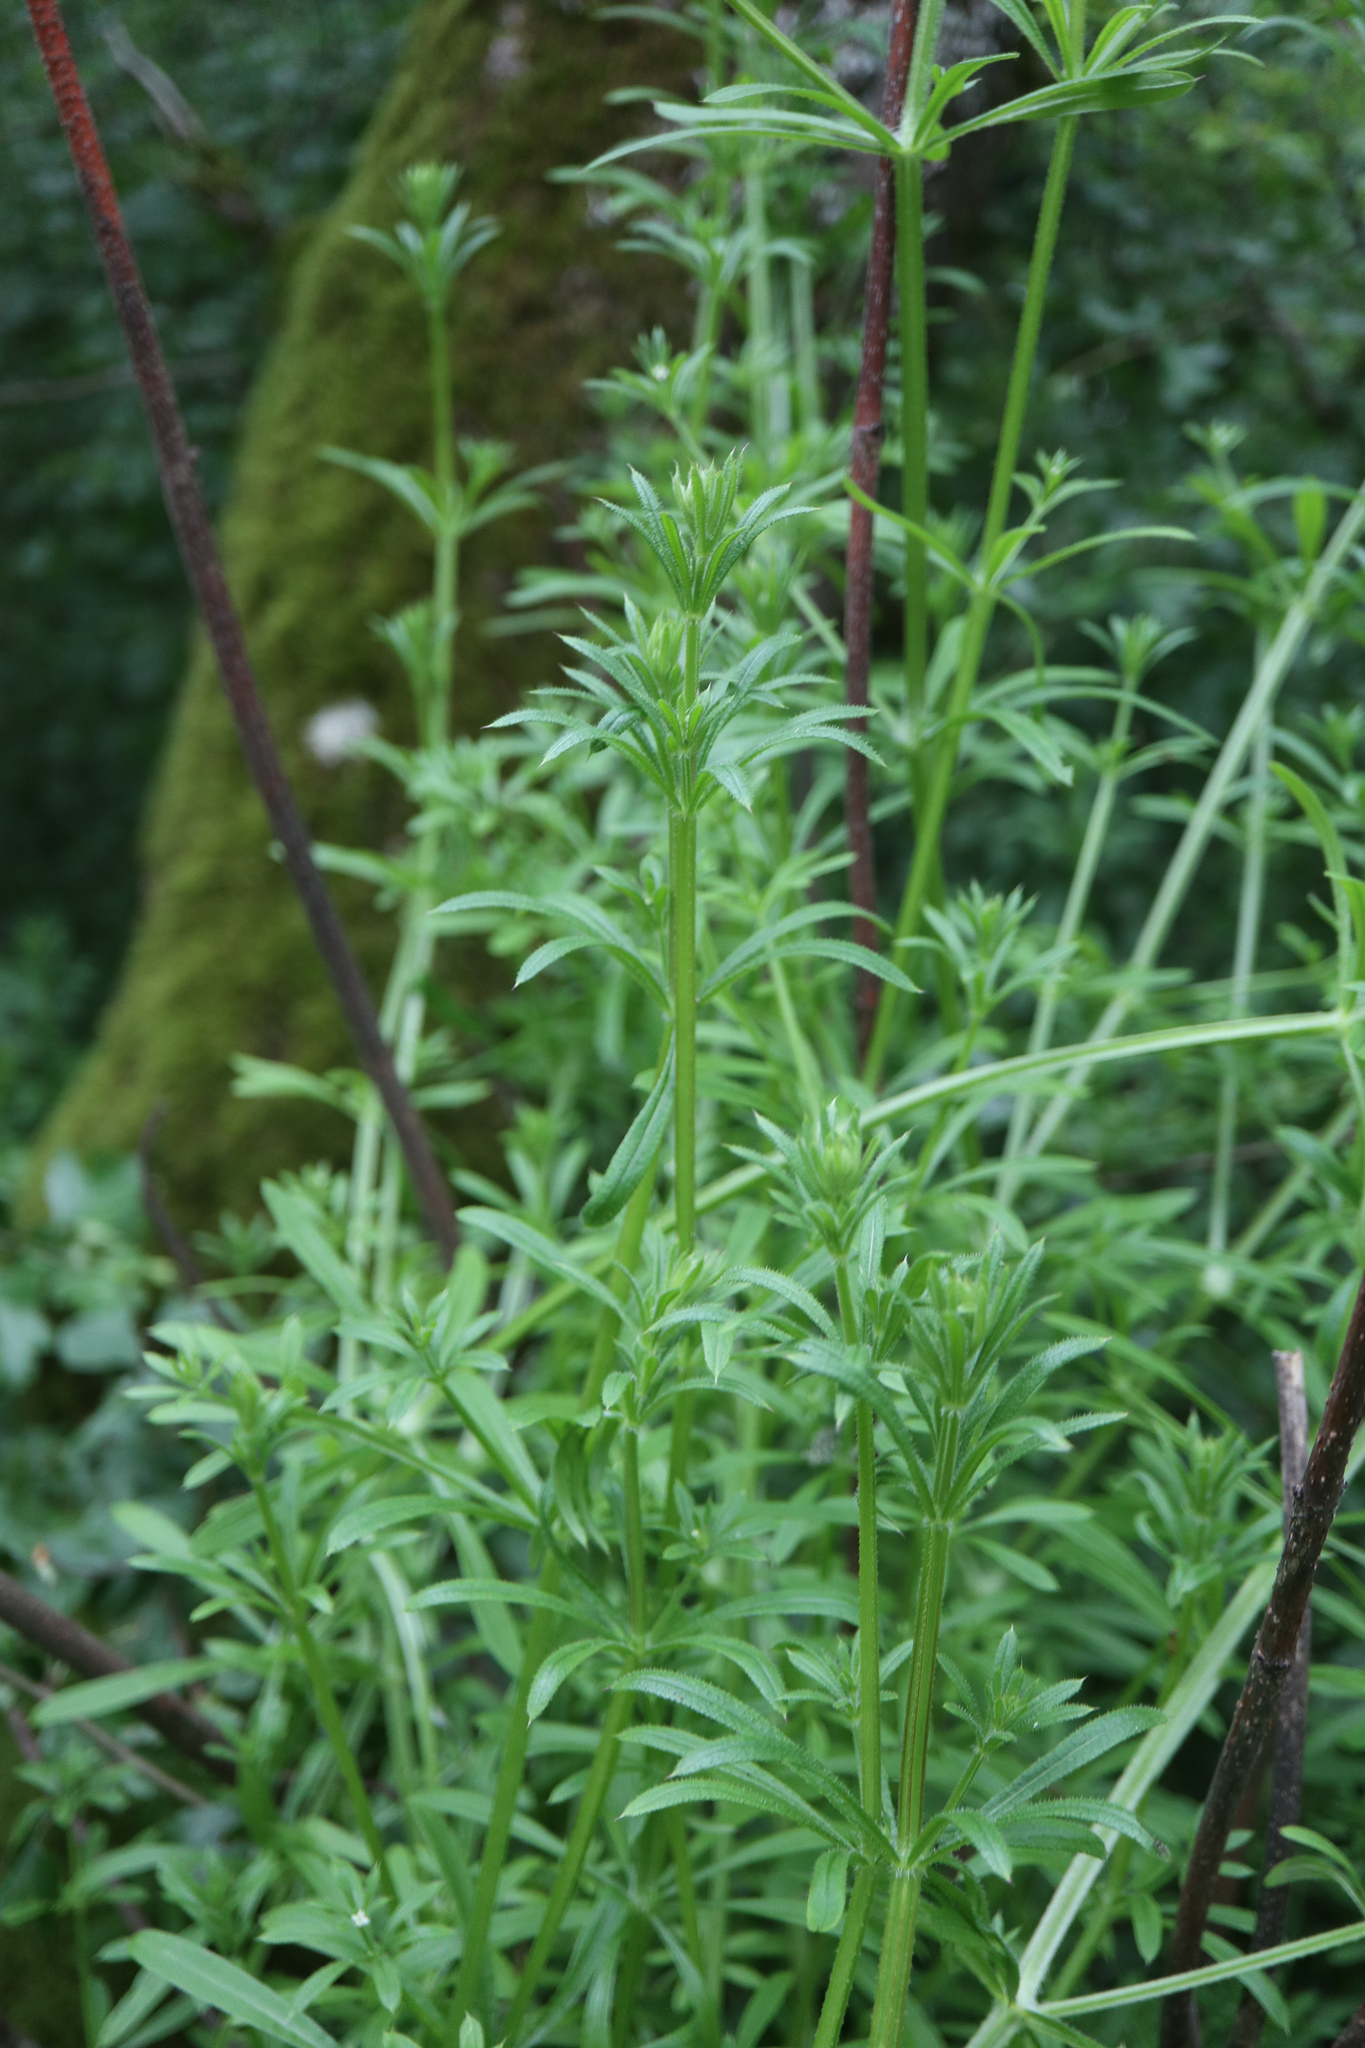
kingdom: Plantae
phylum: Tracheophyta
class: Magnoliopsida
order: Gentianales
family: Rubiaceae
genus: Galium
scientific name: Galium aparine
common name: Cleavers
